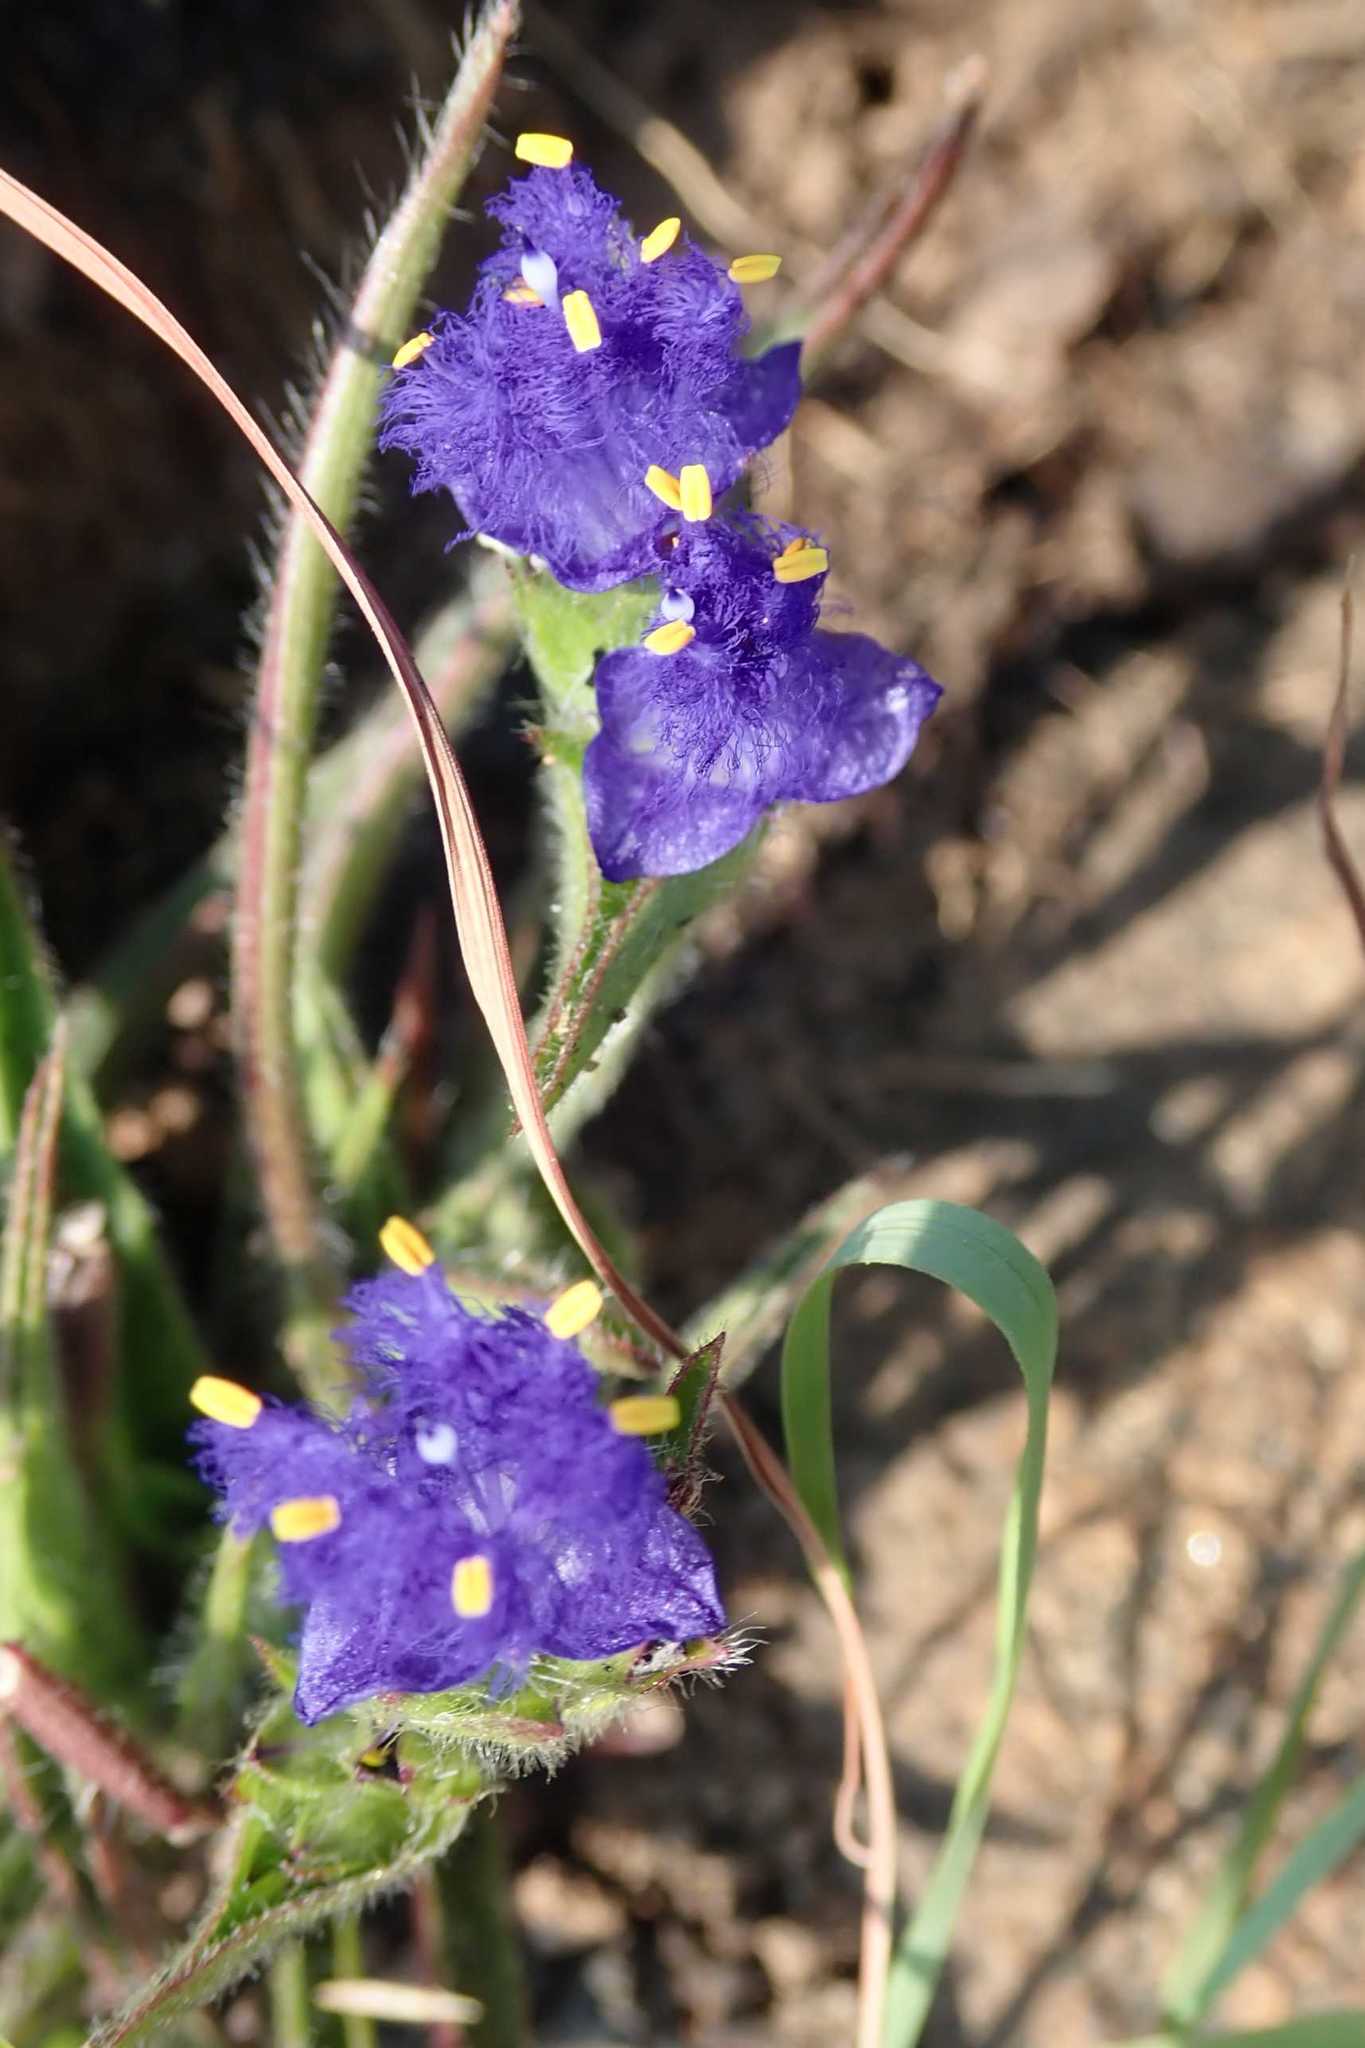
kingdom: Plantae
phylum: Tracheophyta
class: Liliopsida
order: Commelinales
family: Commelinaceae
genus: Cyanotis
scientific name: Cyanotis speciosa
